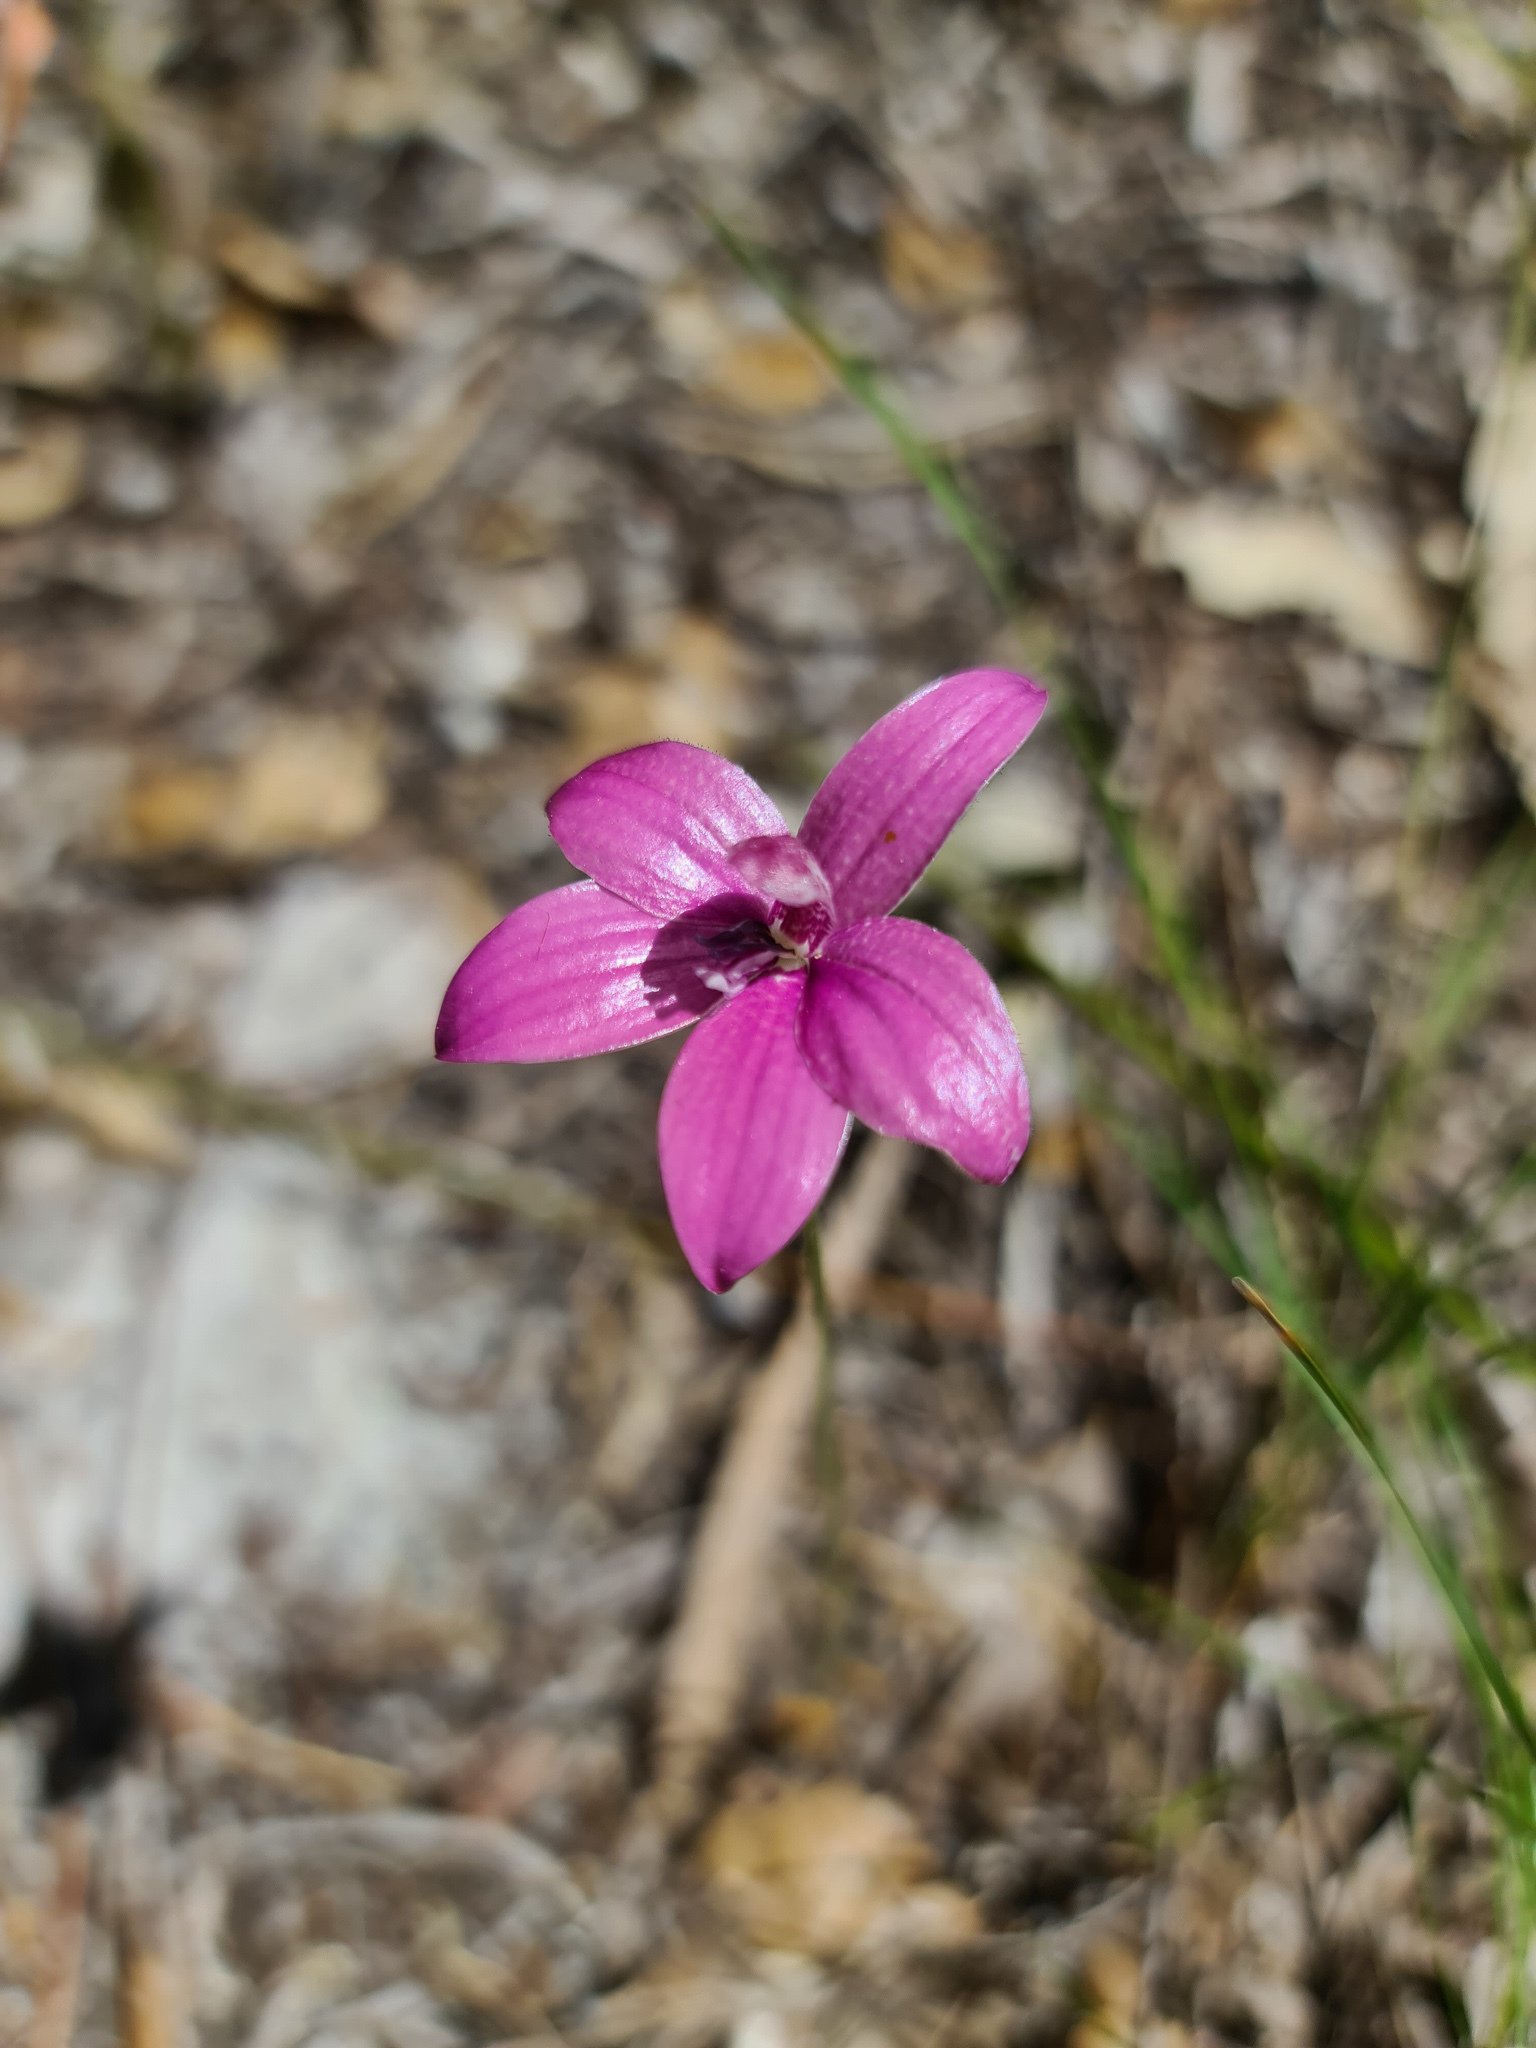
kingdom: Plantae
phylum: Tracheophyta
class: Liliopsida
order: Asparagales
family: Orchidaceae
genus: Caladenia
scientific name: Caladenia emarginata
